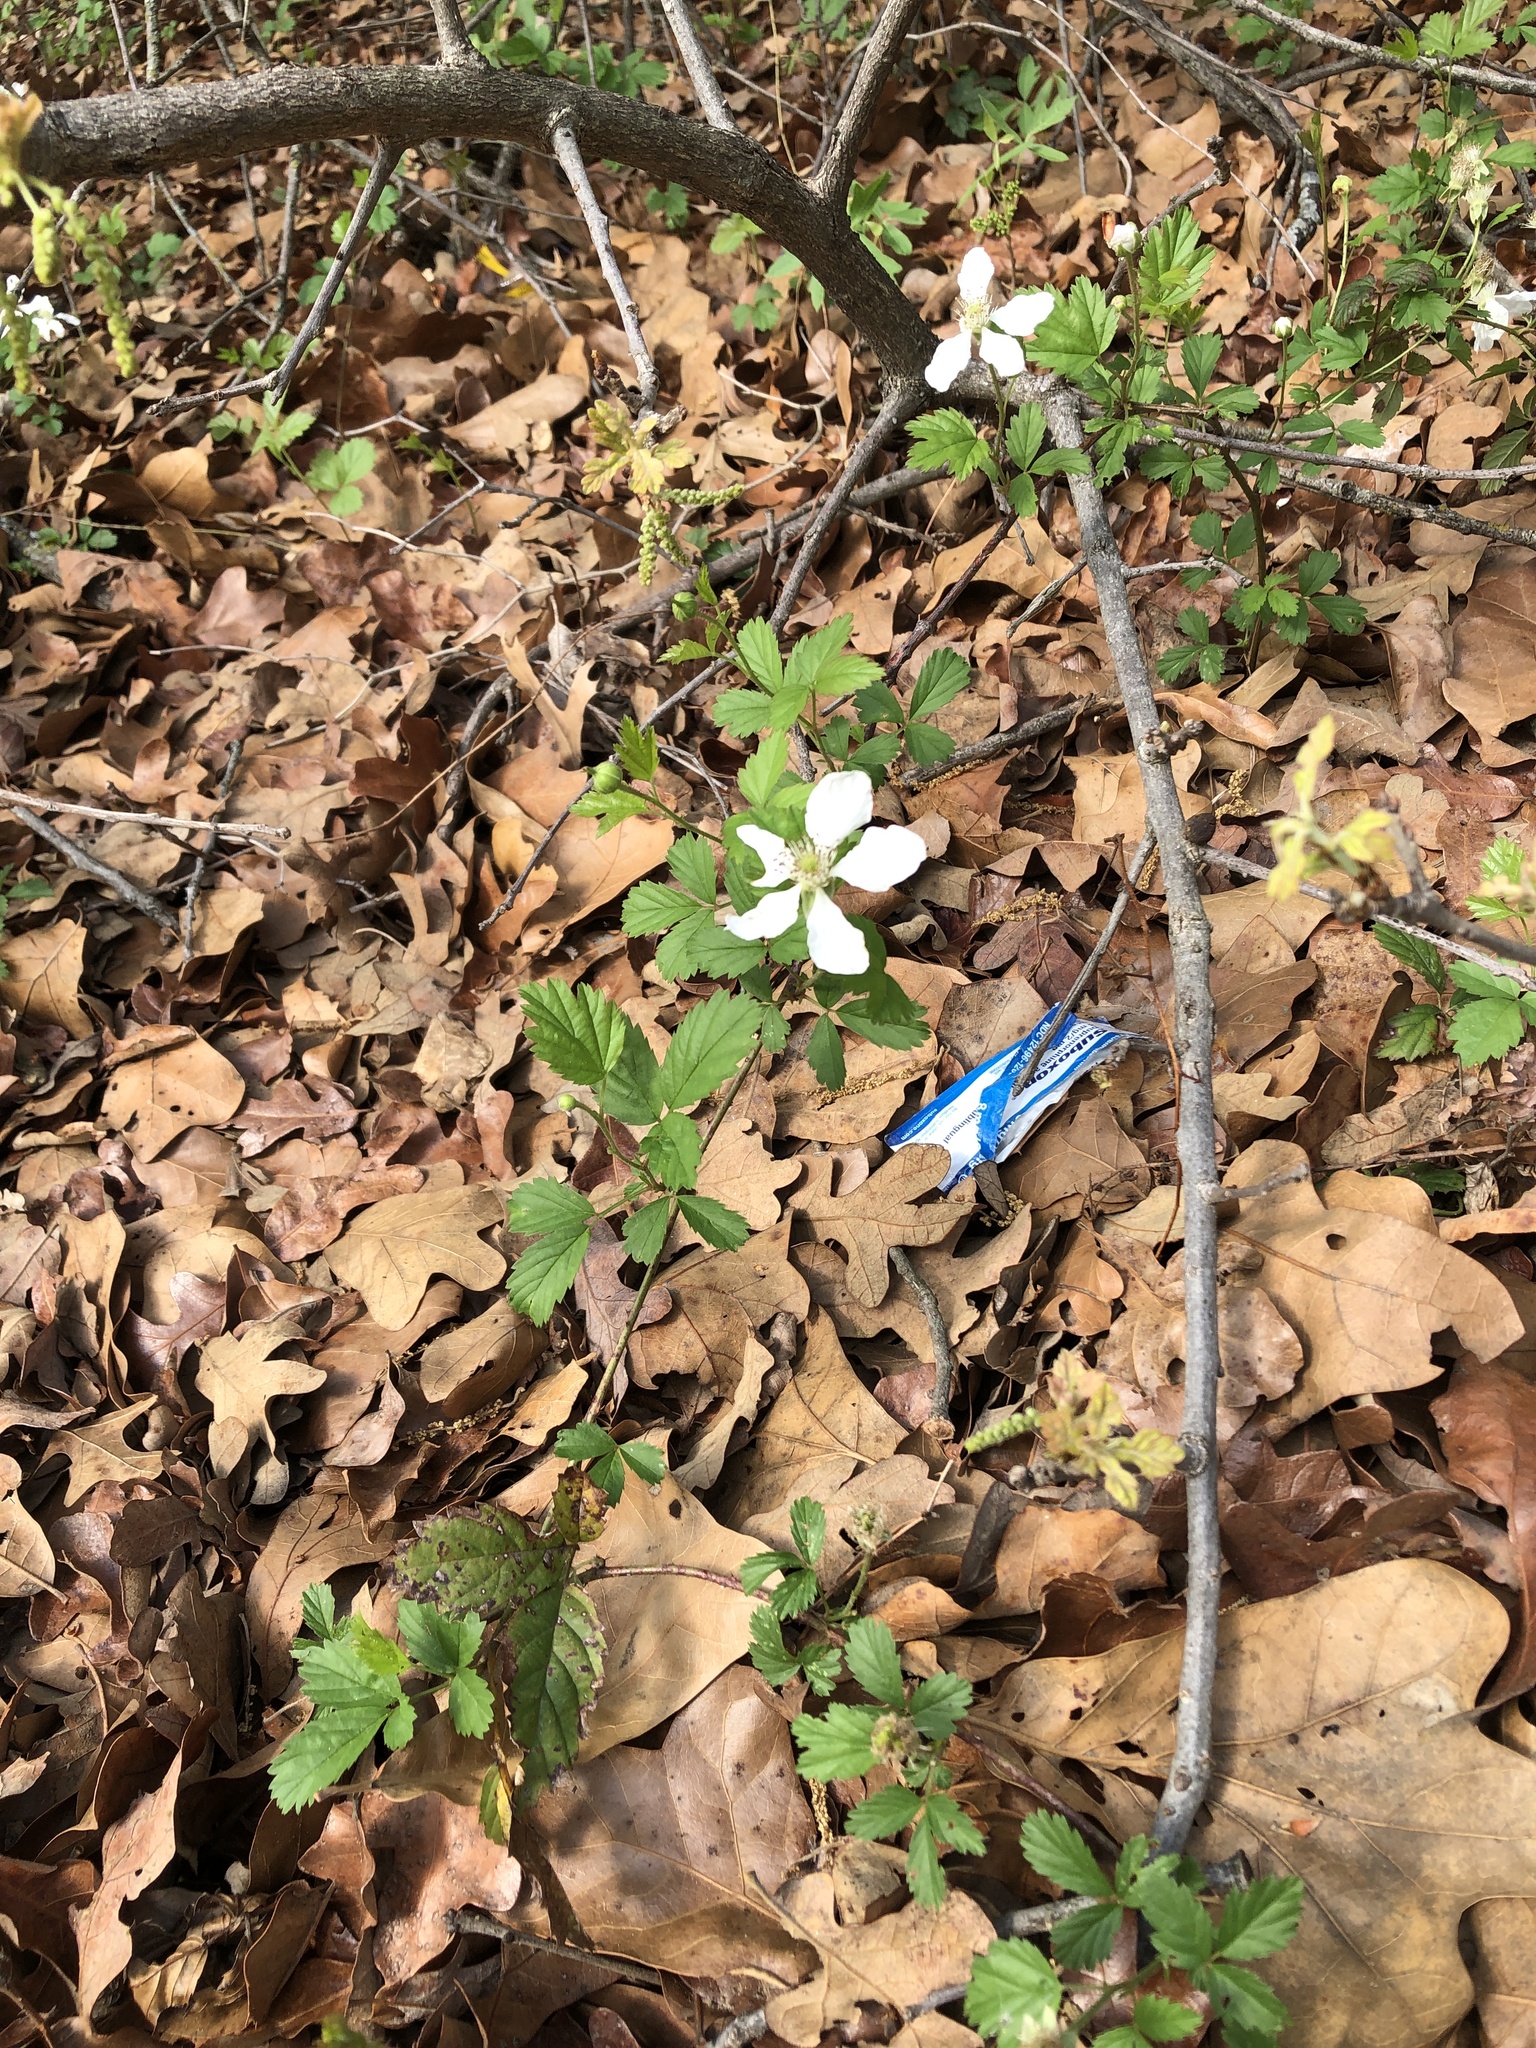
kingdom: Plantae
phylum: Tracheophyta
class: Magnoliopsida
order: Rosales
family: Rosaceae
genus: Rubus
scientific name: Rubus trivialis
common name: Southern dewberry
